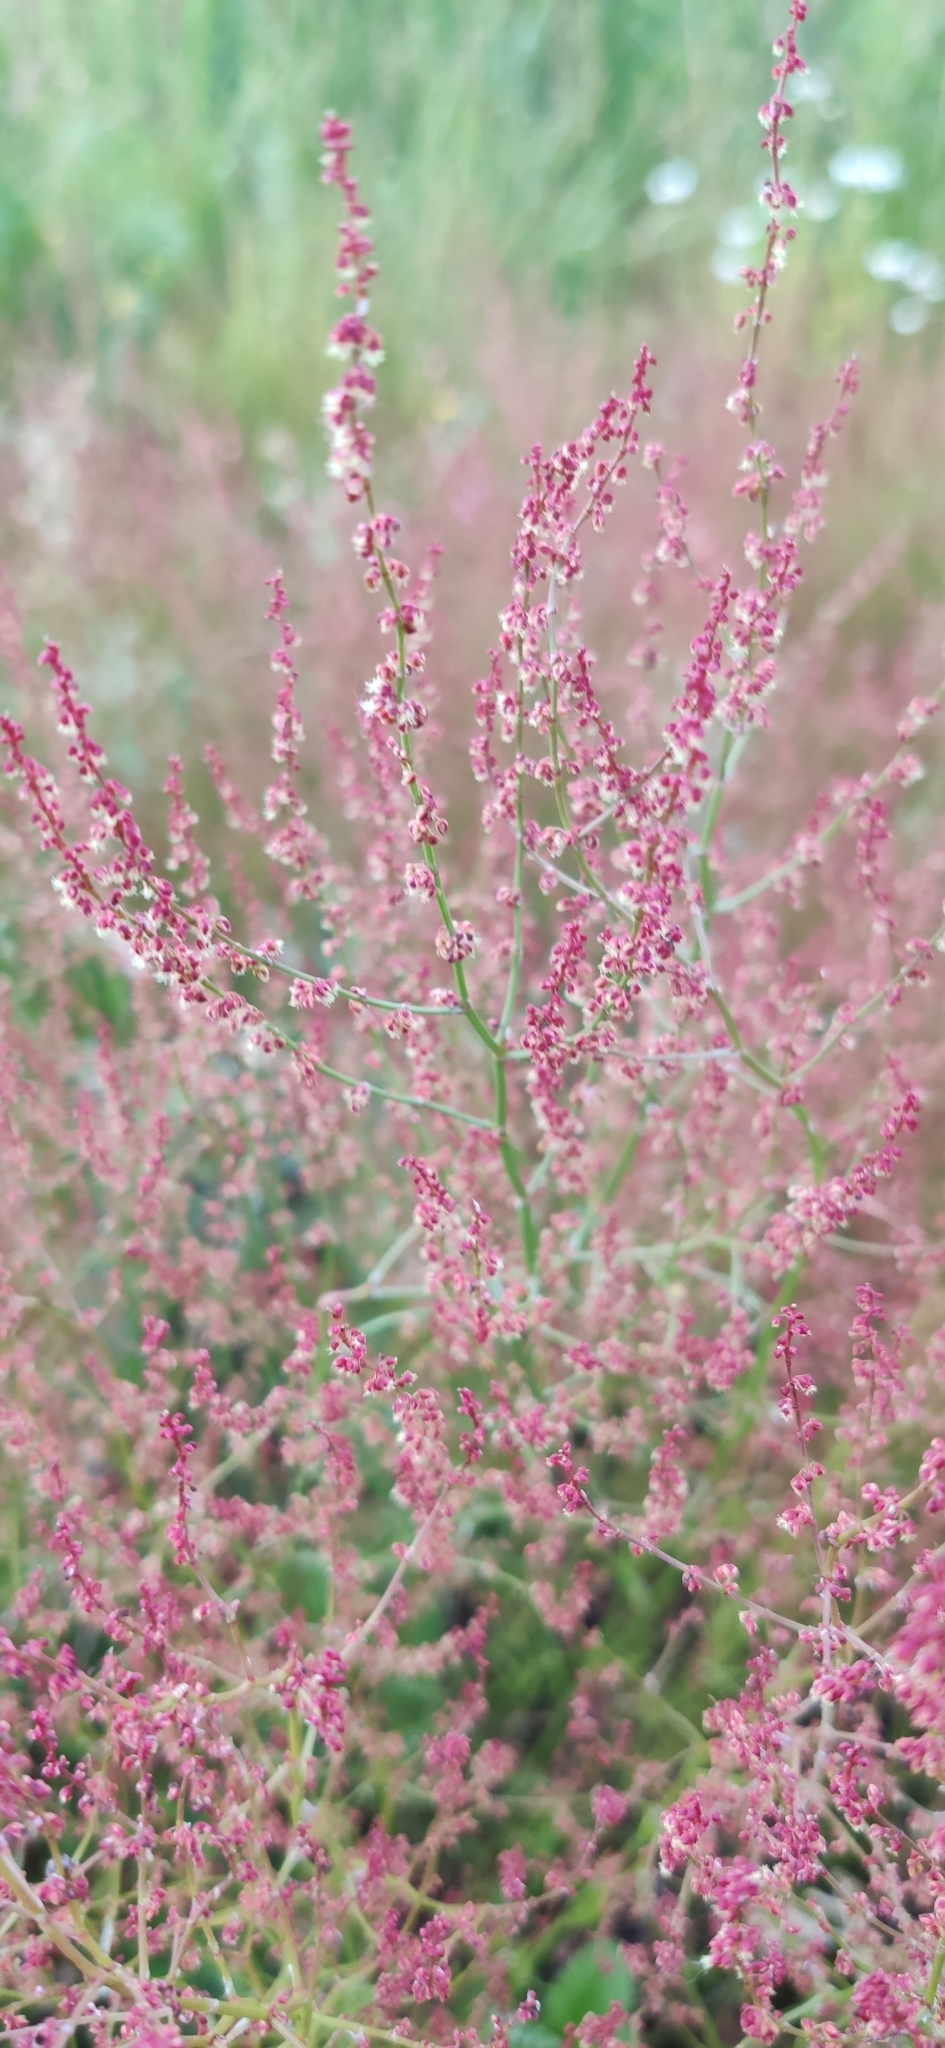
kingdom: Plantae
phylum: Tracheophyta
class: Magnoliopsida
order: Caryophyllales
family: Polygonaceae
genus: Rumex
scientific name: Rumex acetosella
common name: Common sheep sorrel
